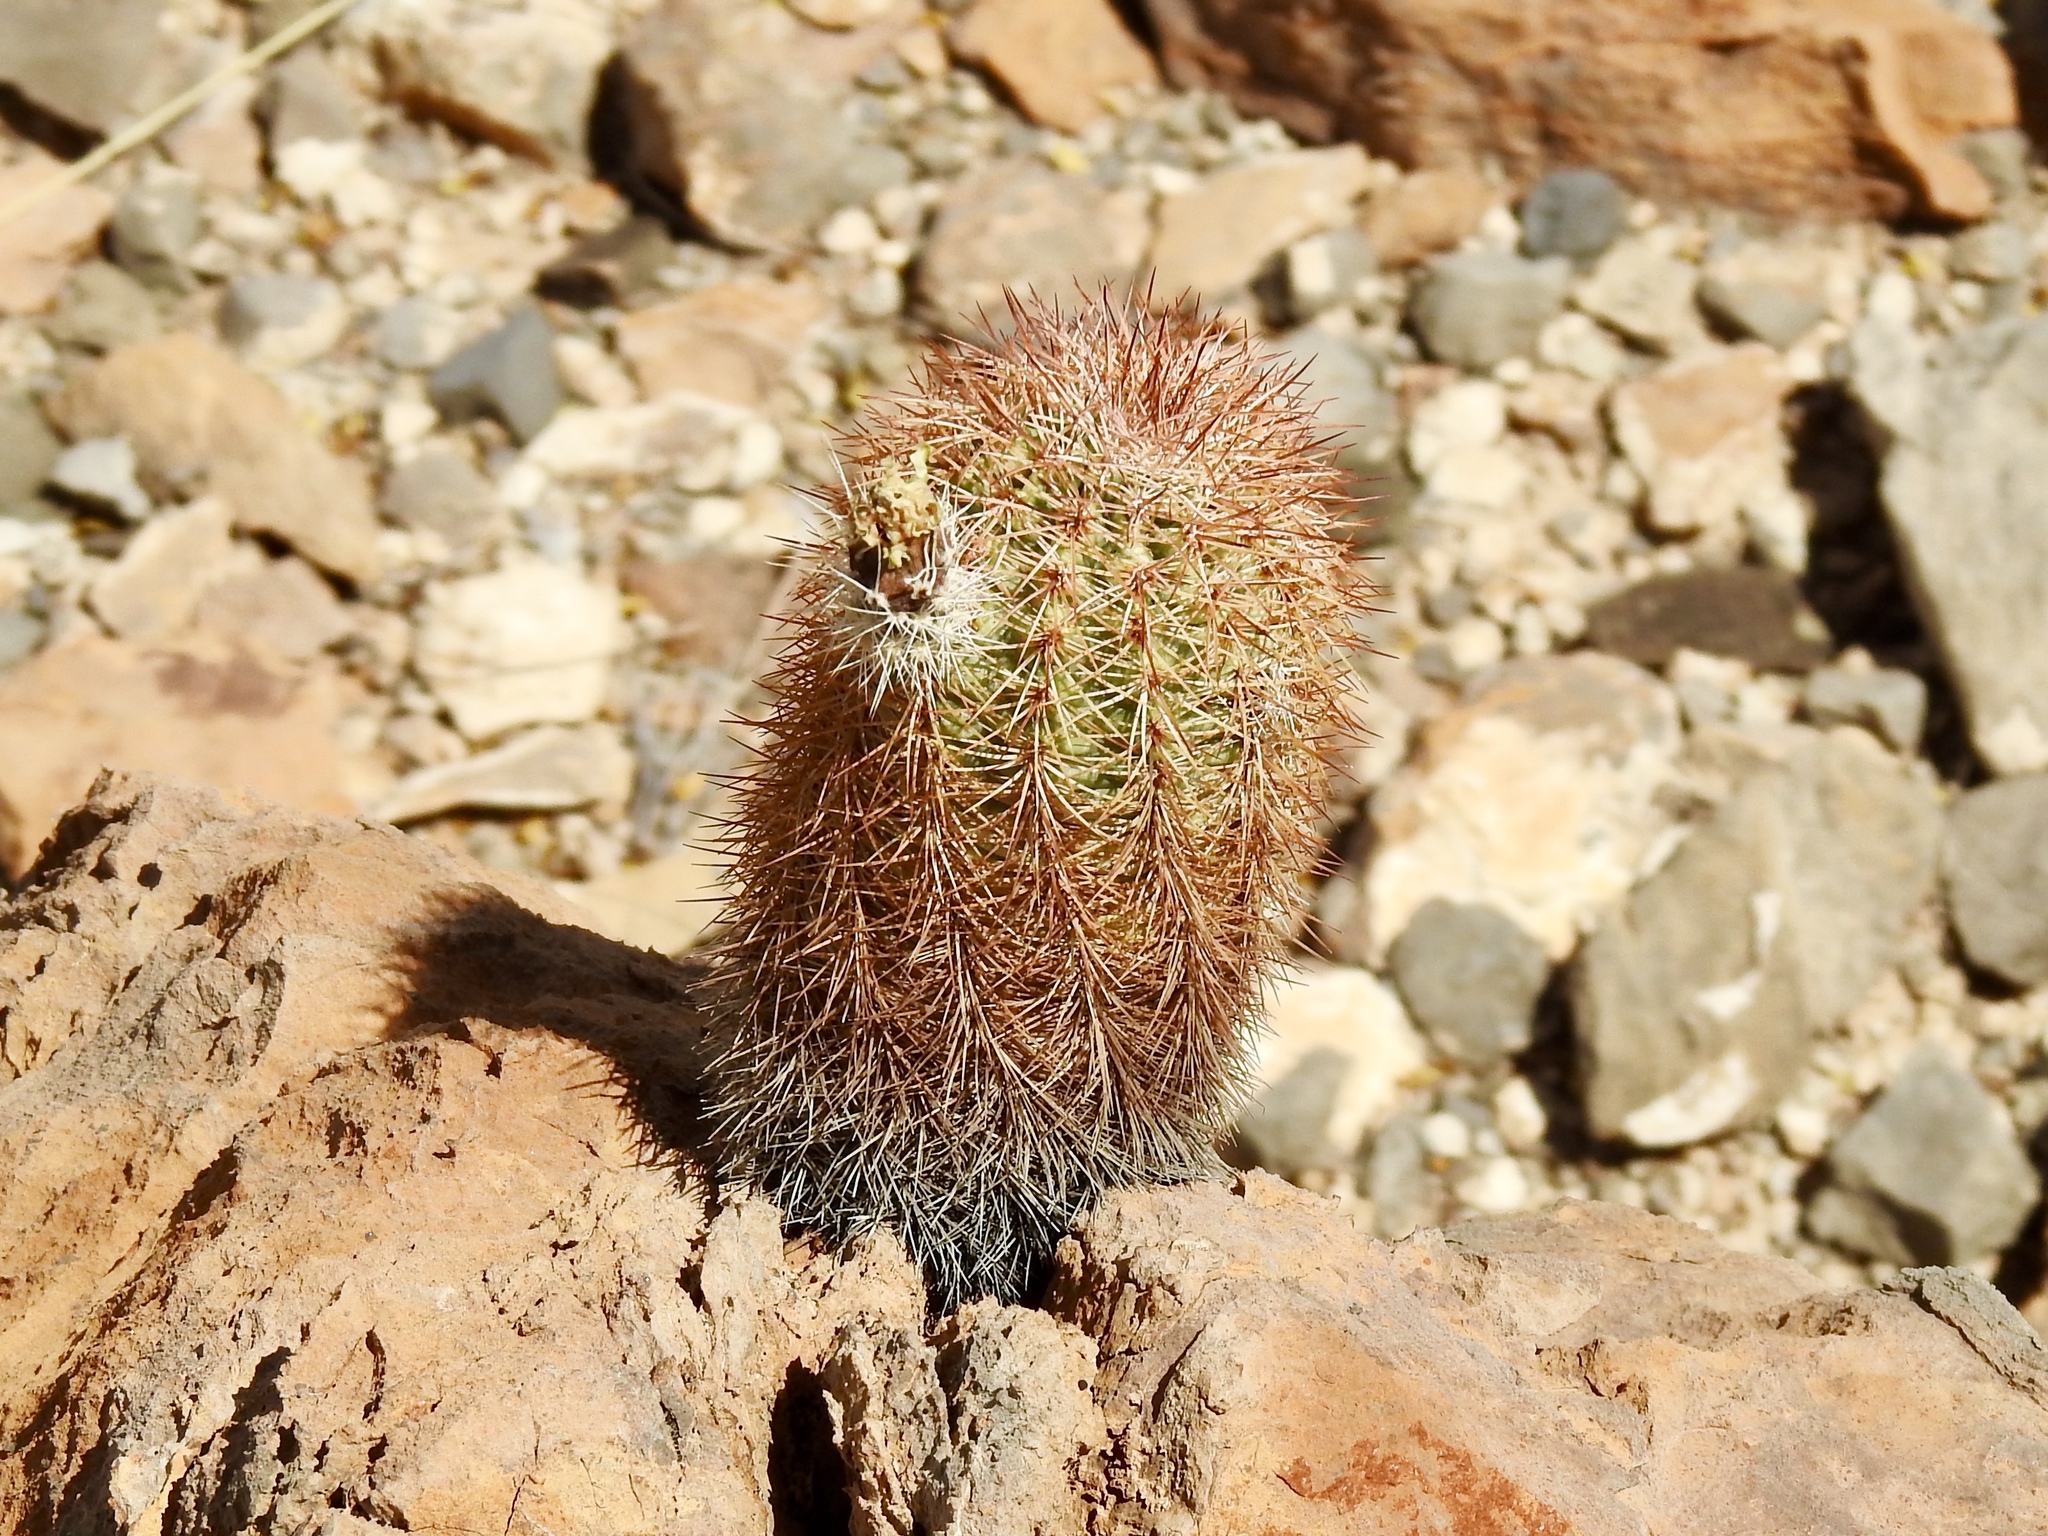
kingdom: Plantae
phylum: Tracheophyta
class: Magnoliopsida
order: Caryophyllales
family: Cactaceae
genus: Echinocereus
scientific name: Echinocereus dasyacanthus
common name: Spiny hedgehog cactus
